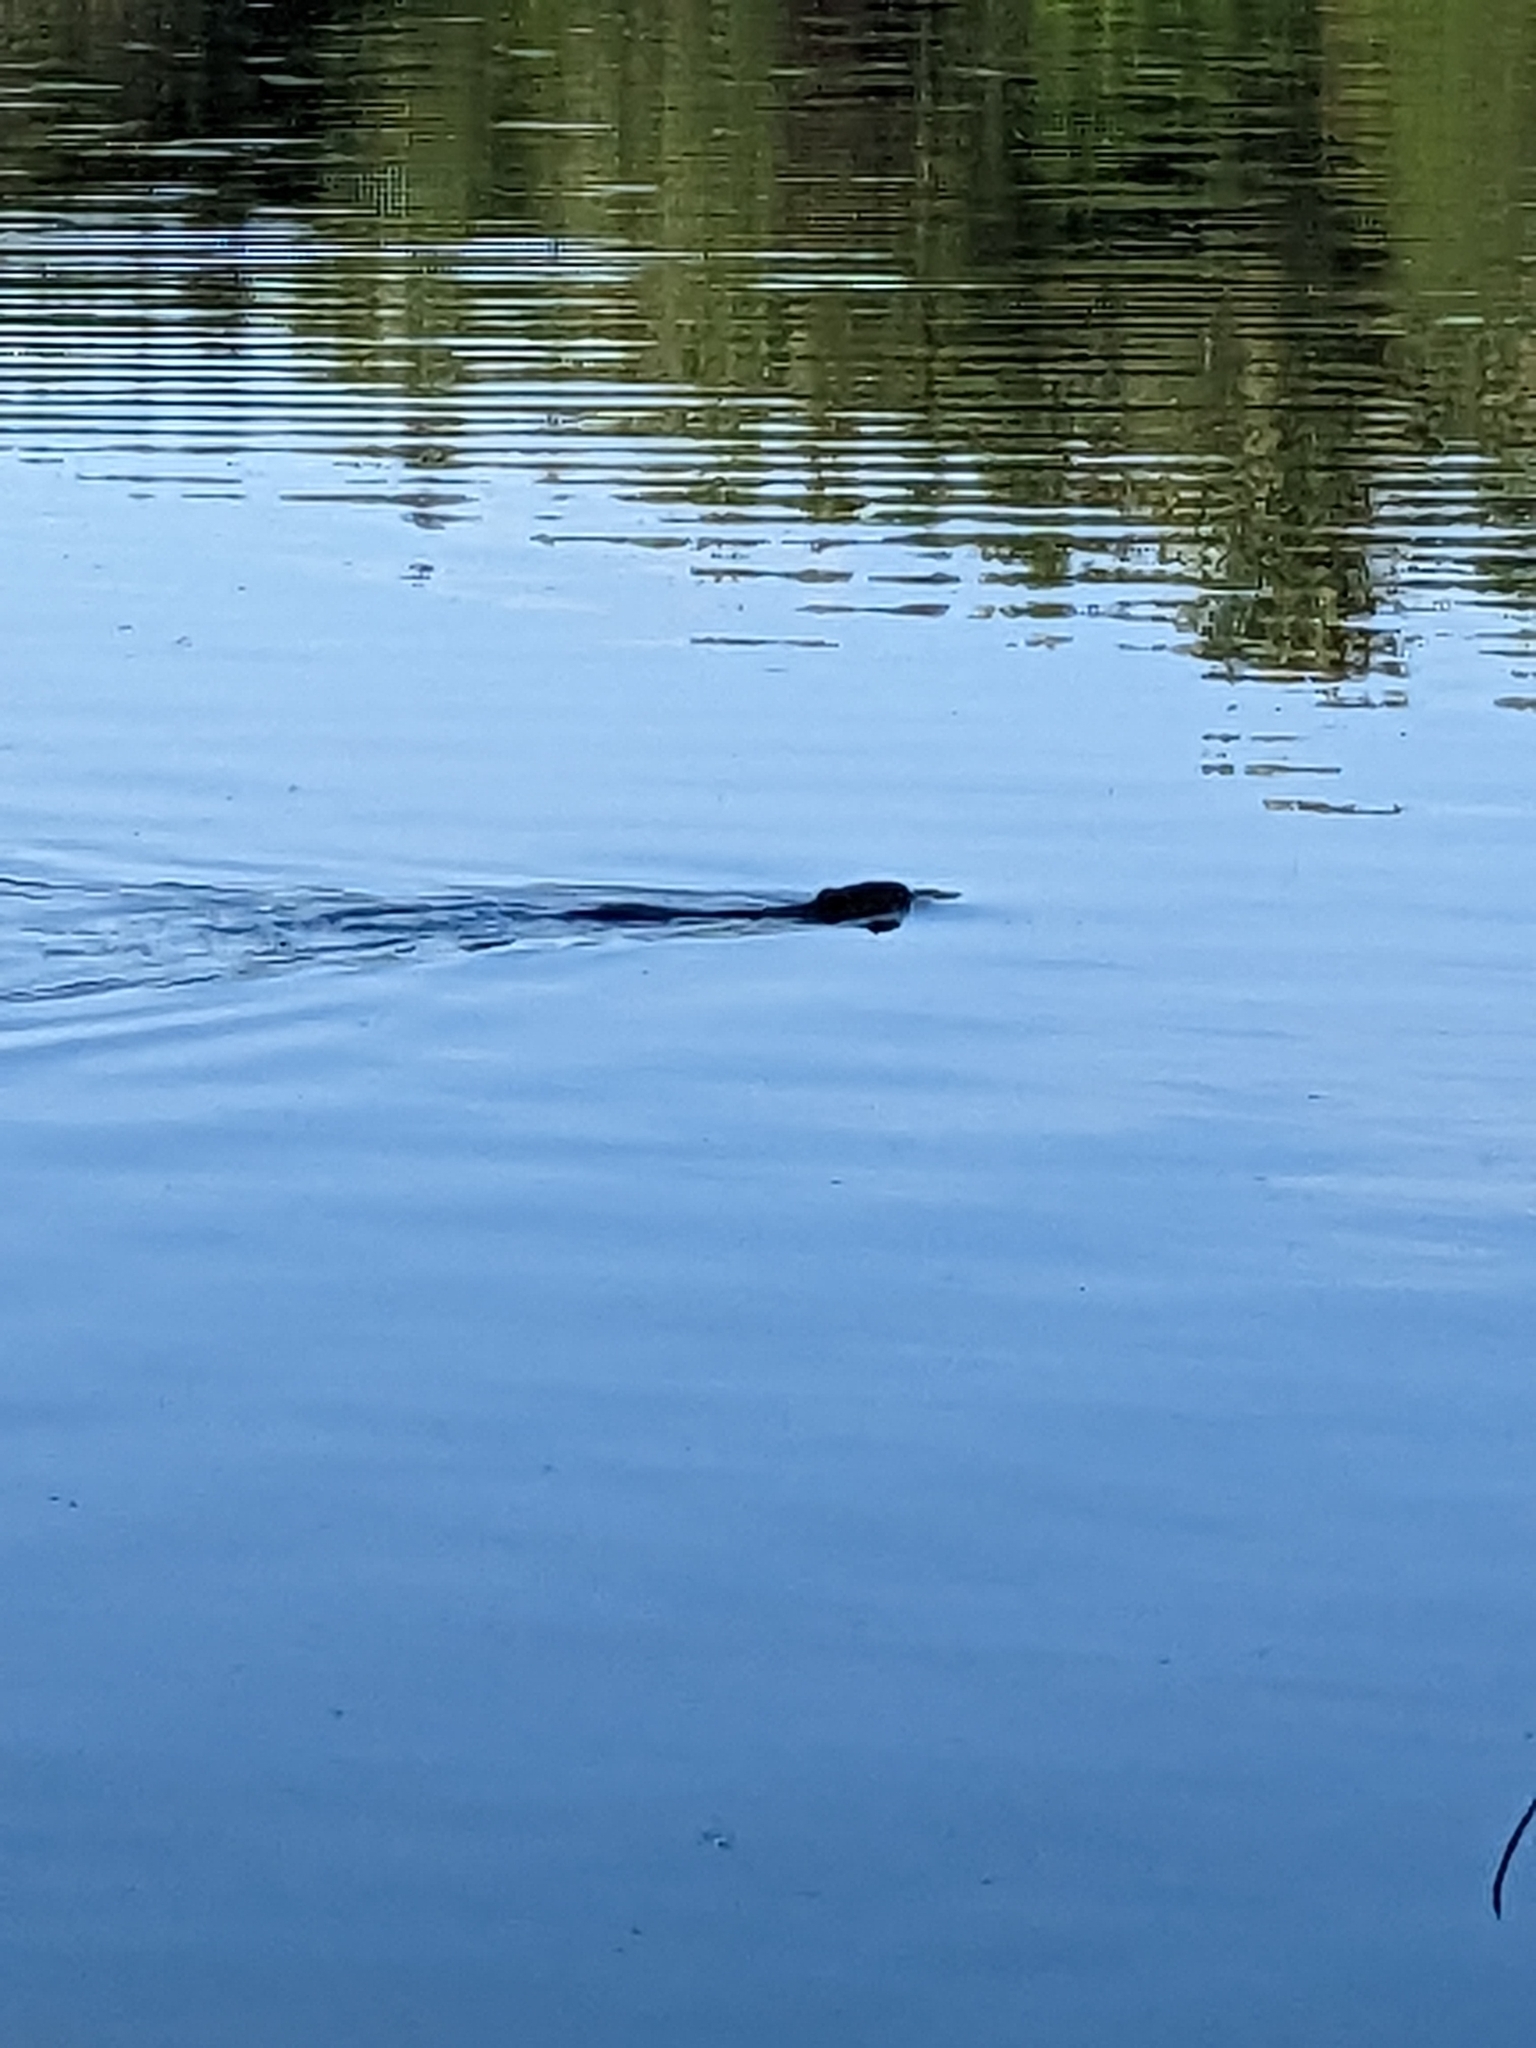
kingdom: Animalia
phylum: Chordata
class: Mammalia
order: Rodentia
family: Castoridae
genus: Castor
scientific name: Castor canadensis
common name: American beaver
